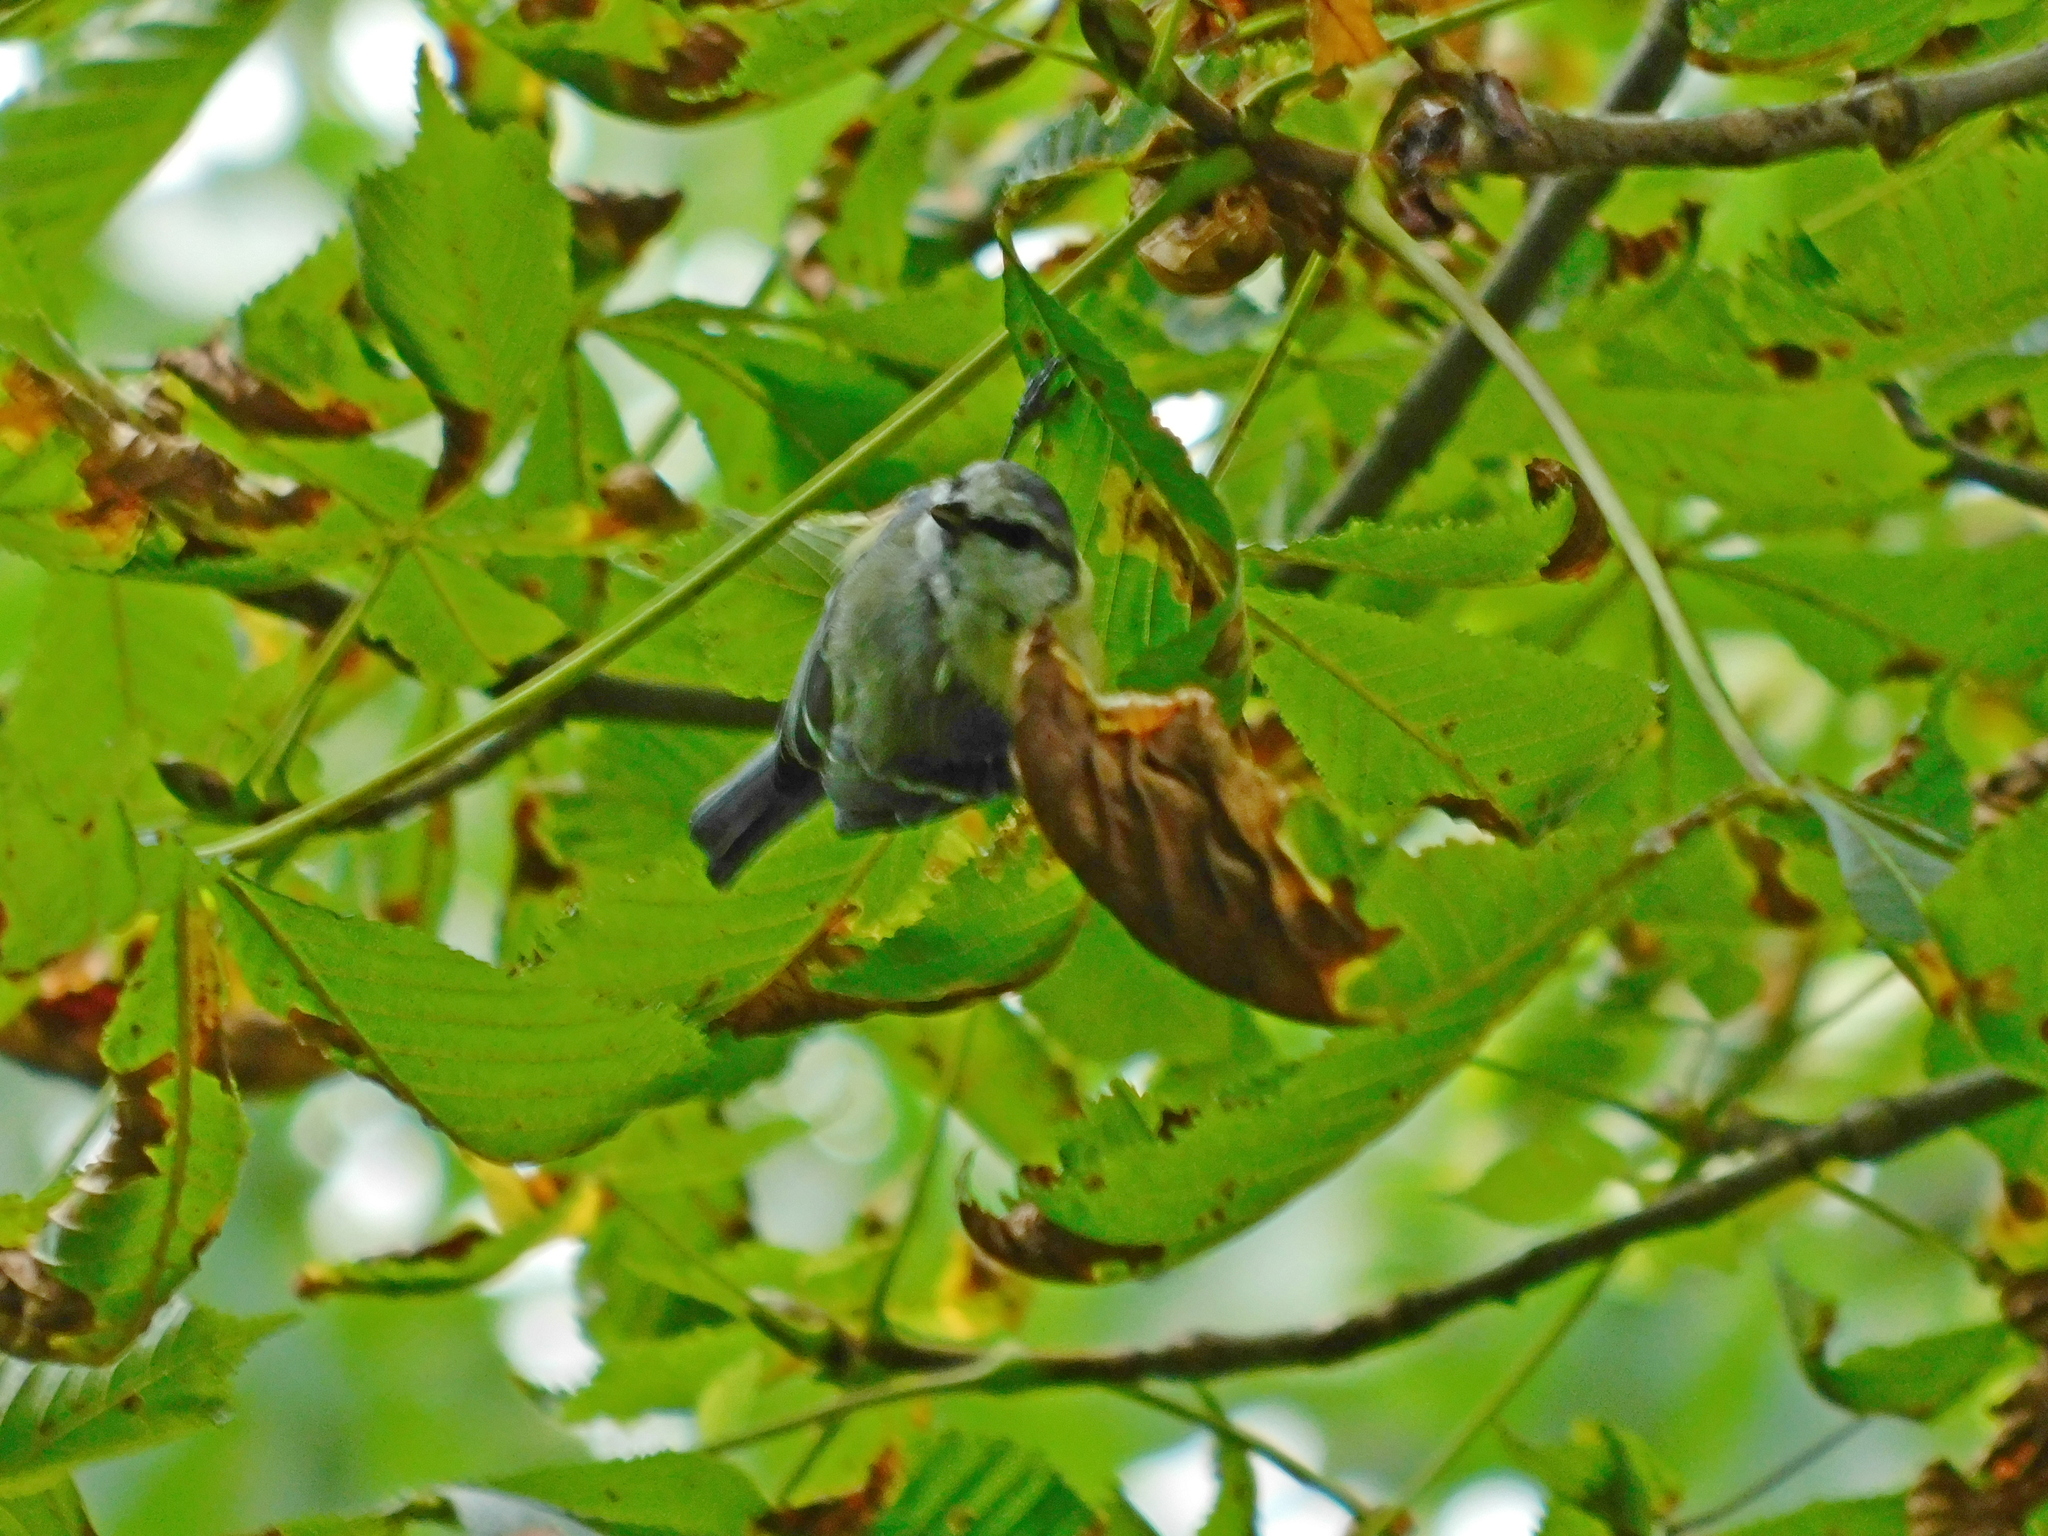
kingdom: Animalia
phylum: Chordata
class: Aves
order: Passeriformes
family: Paridae
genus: Cyanistes
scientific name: Cyanistes caeruleus
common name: Eurasian blue tit
